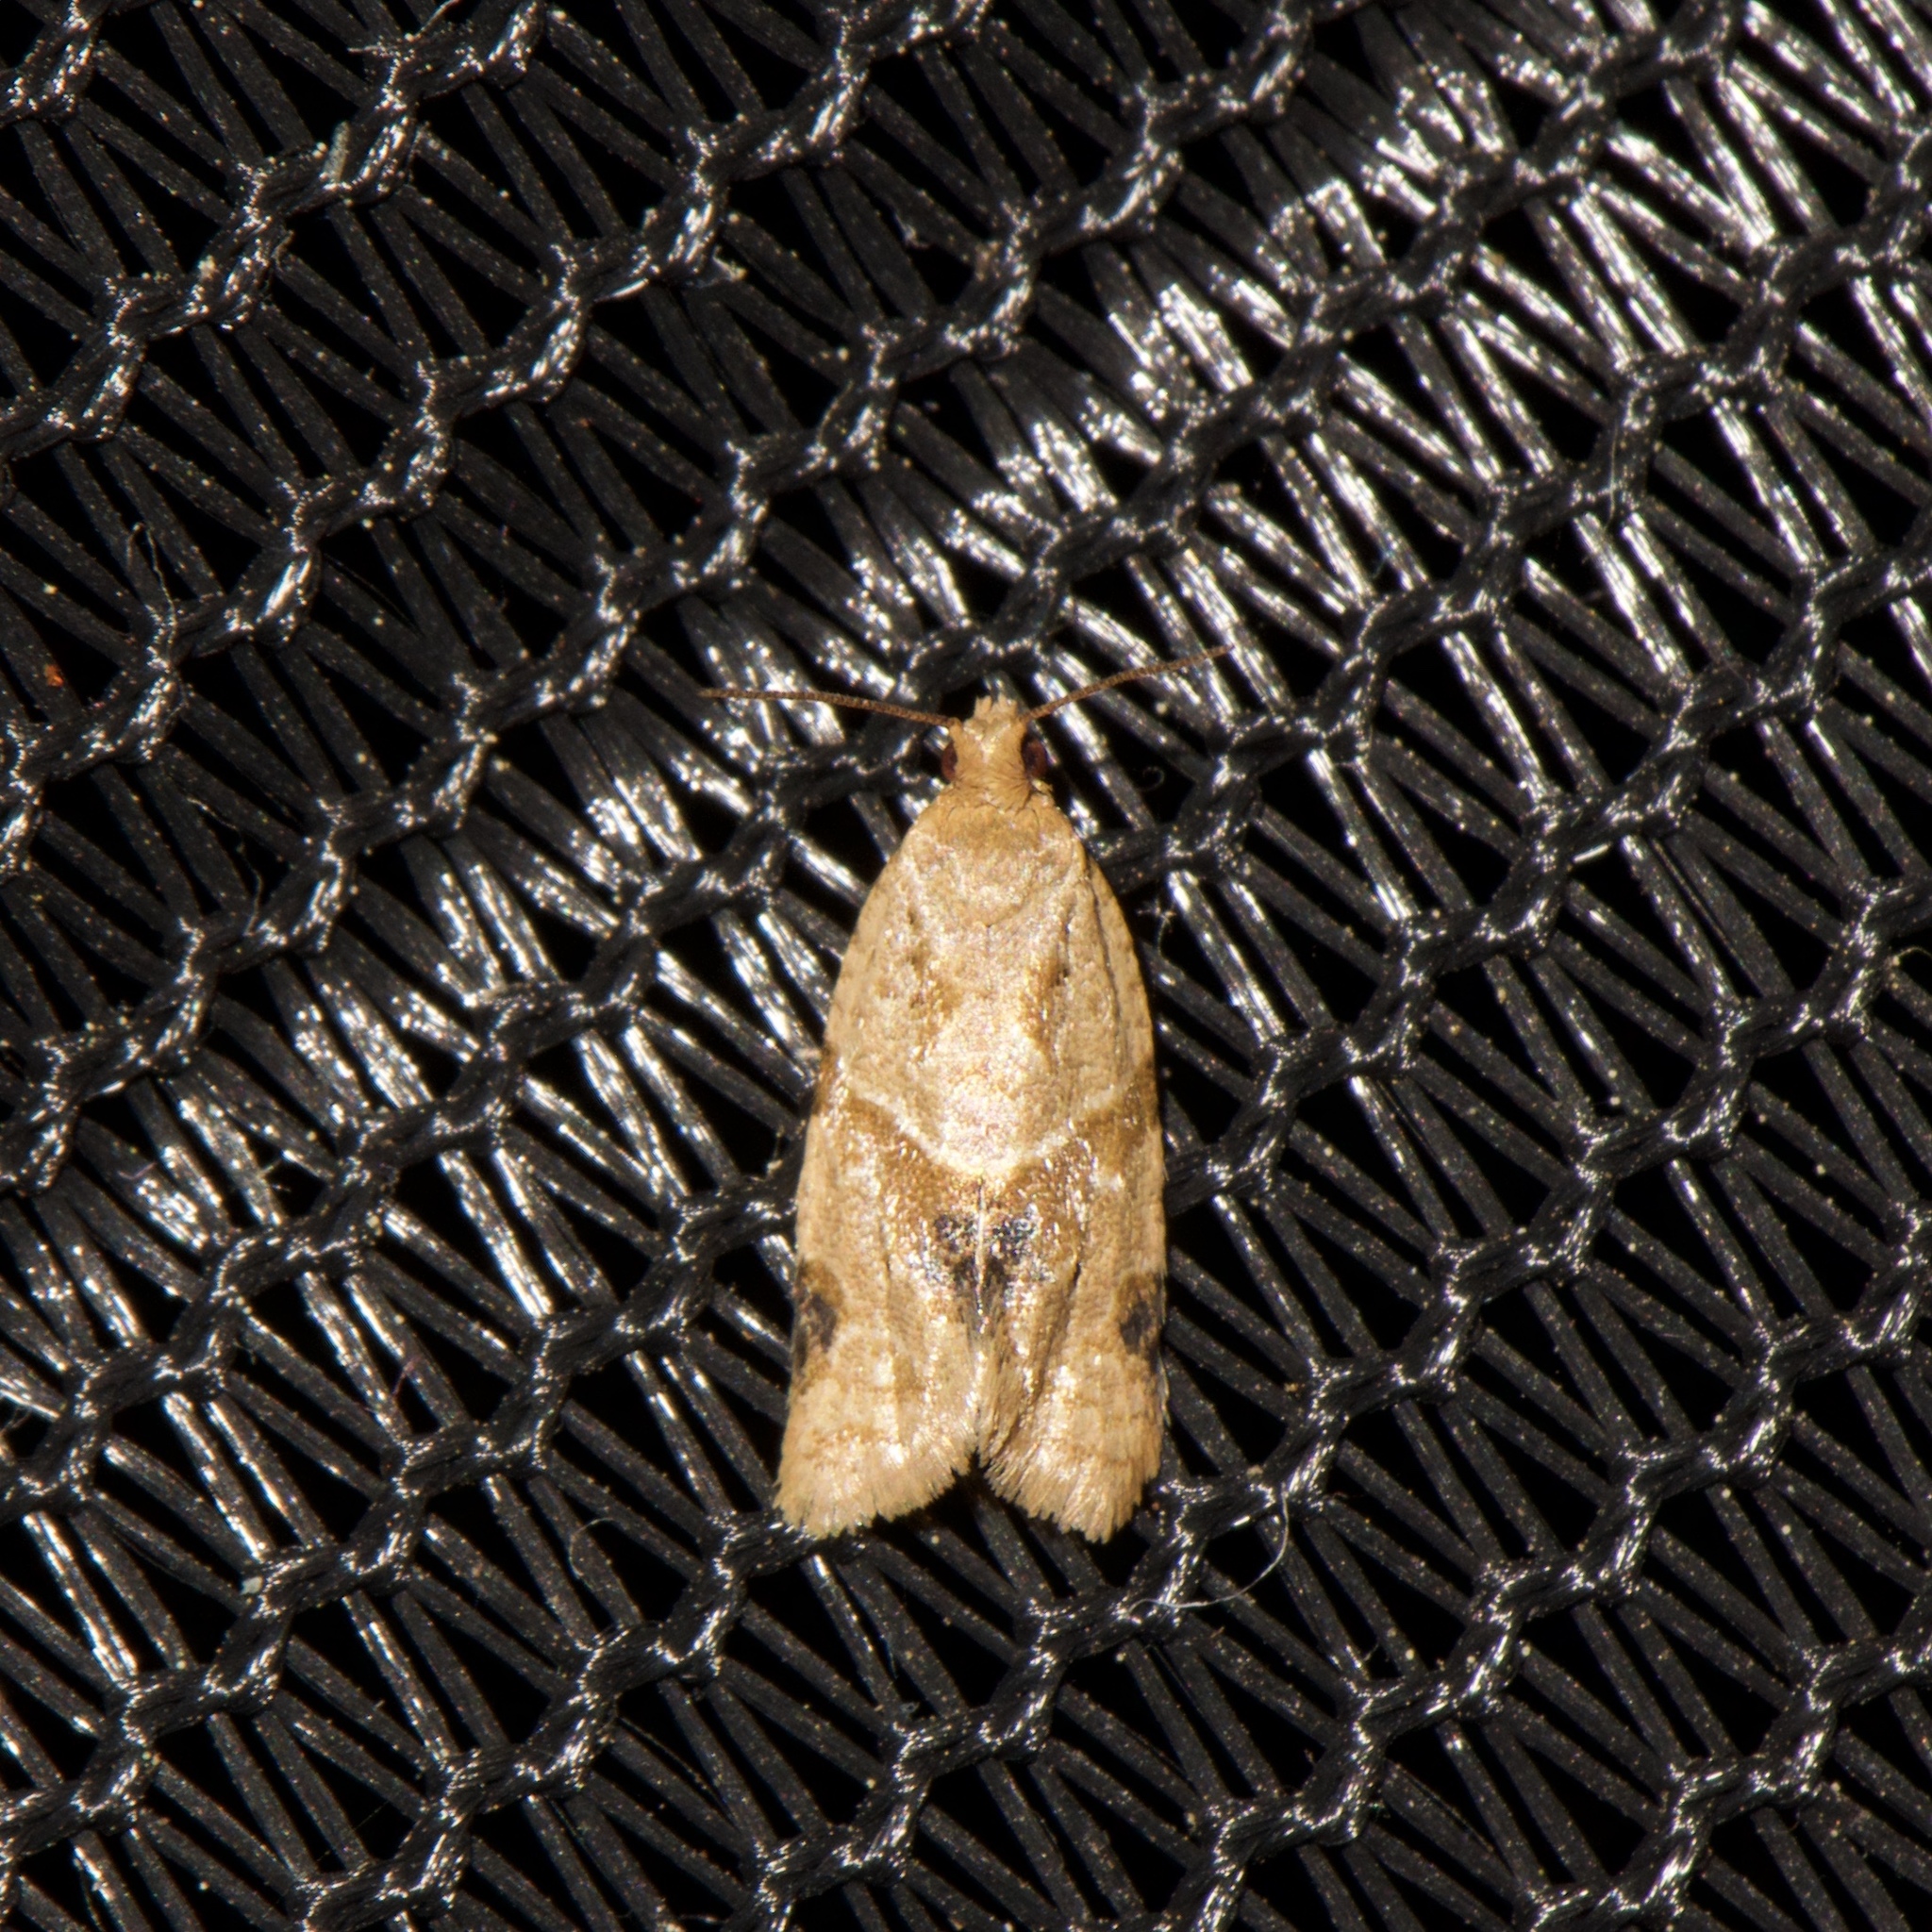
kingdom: Animalia
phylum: Arthropoda
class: Insecta
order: Lepidoptera
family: Tortricidae
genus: Clepsis
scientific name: Clepsis peritana
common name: Garden tortrix
